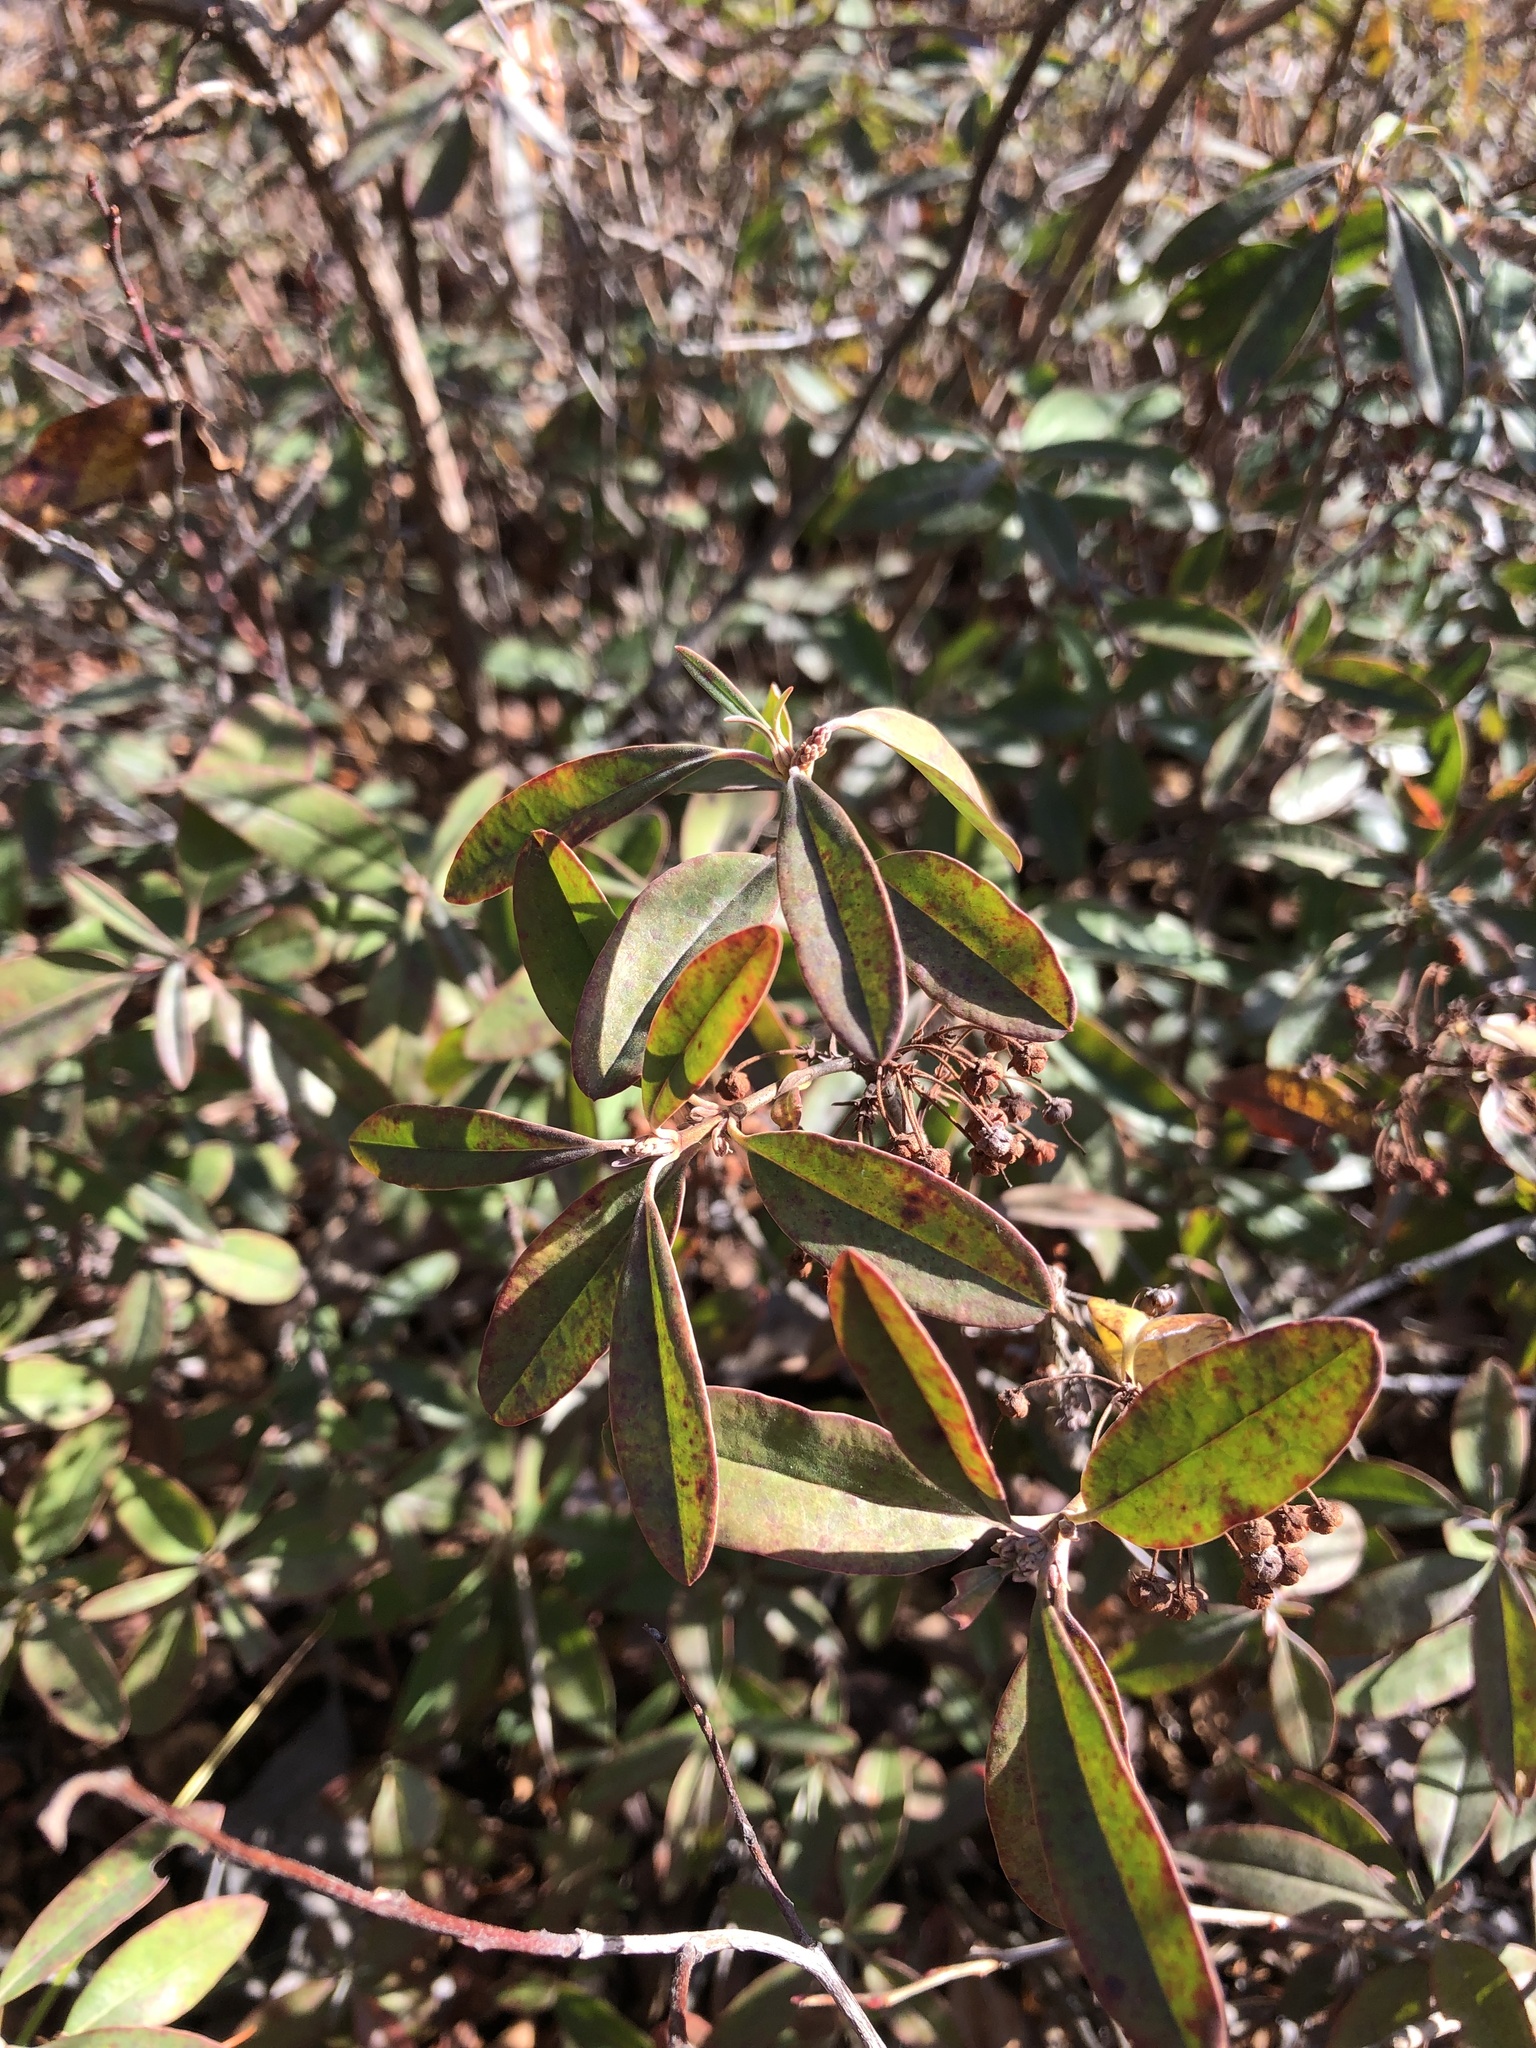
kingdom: Plantae
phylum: Tracheophyta
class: Magnoliopsida
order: Ericales
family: Ericaceae
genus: Kalmia
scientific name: Kalmia angustifolia
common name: Sheep-laurel
